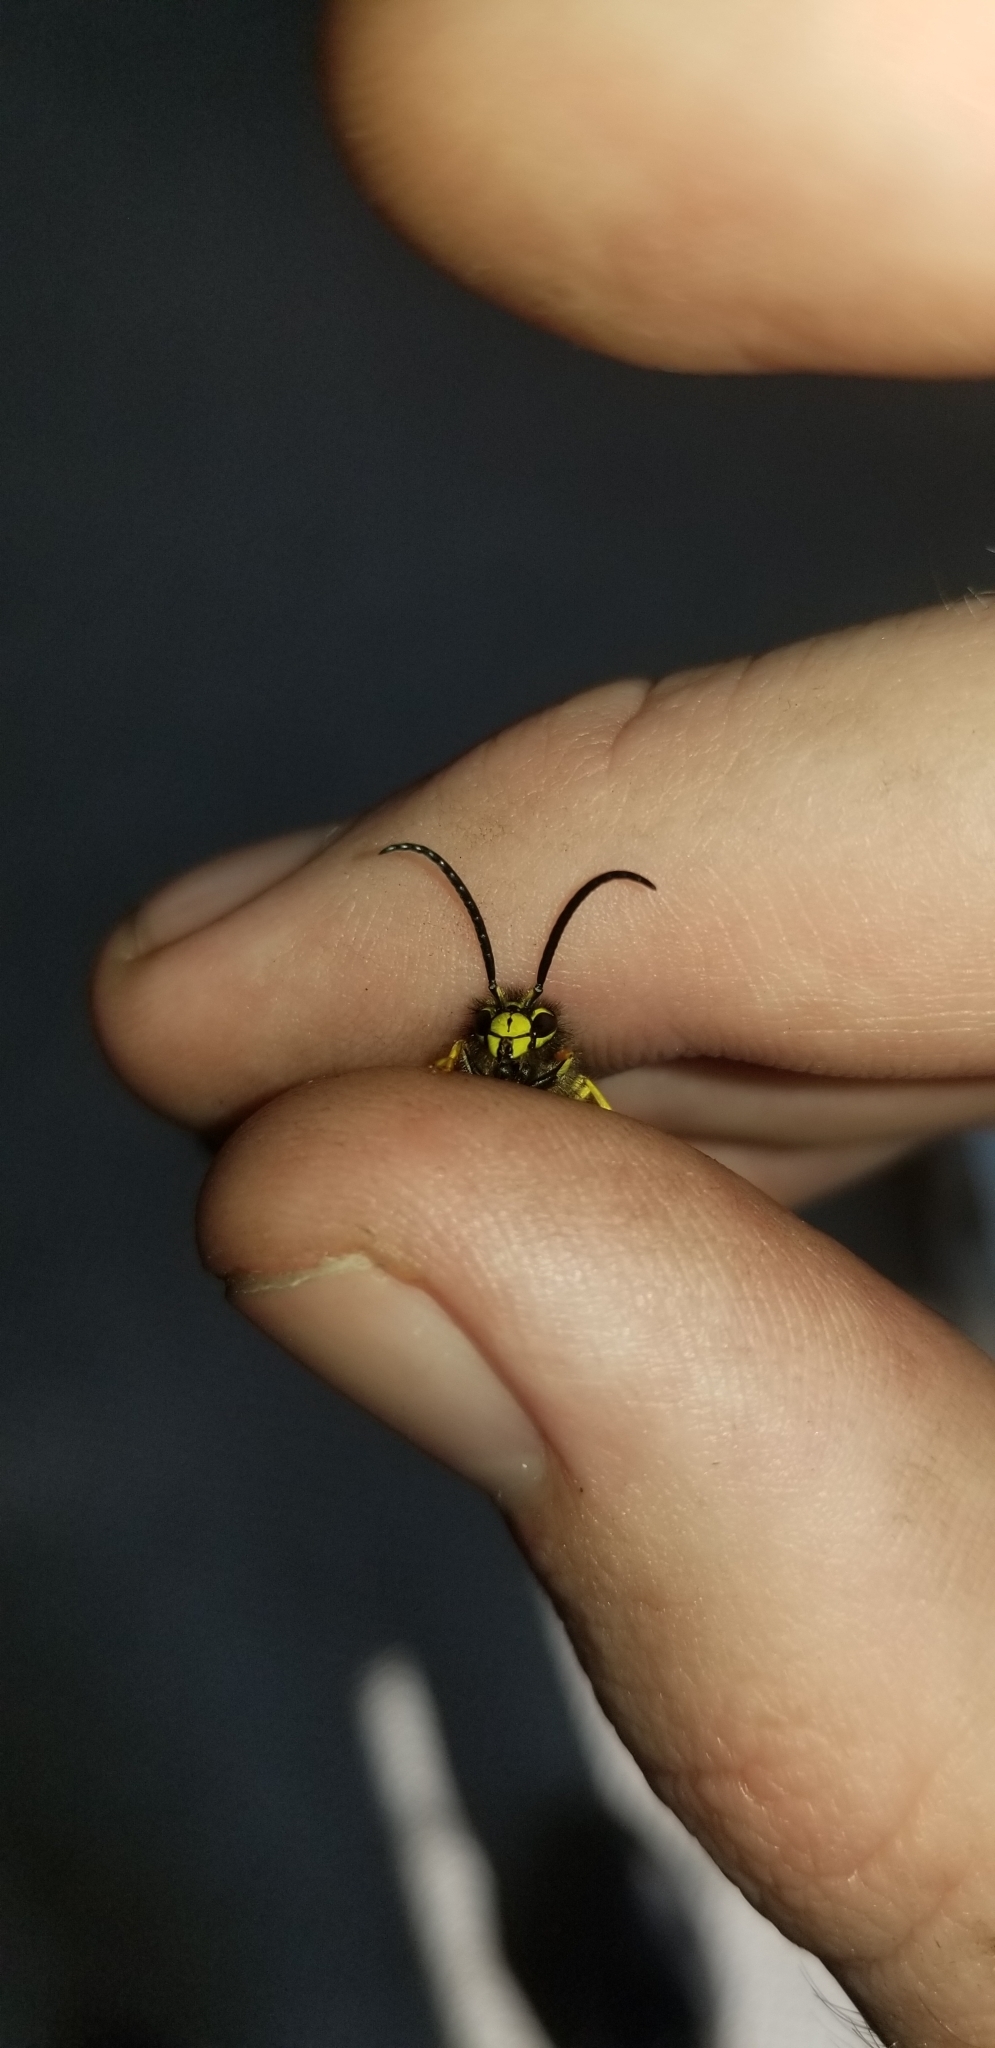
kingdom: Animalia
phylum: Arthropoda
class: Insecta
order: Hymenoptera
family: Vespidae
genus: Vespula
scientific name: Vespula
